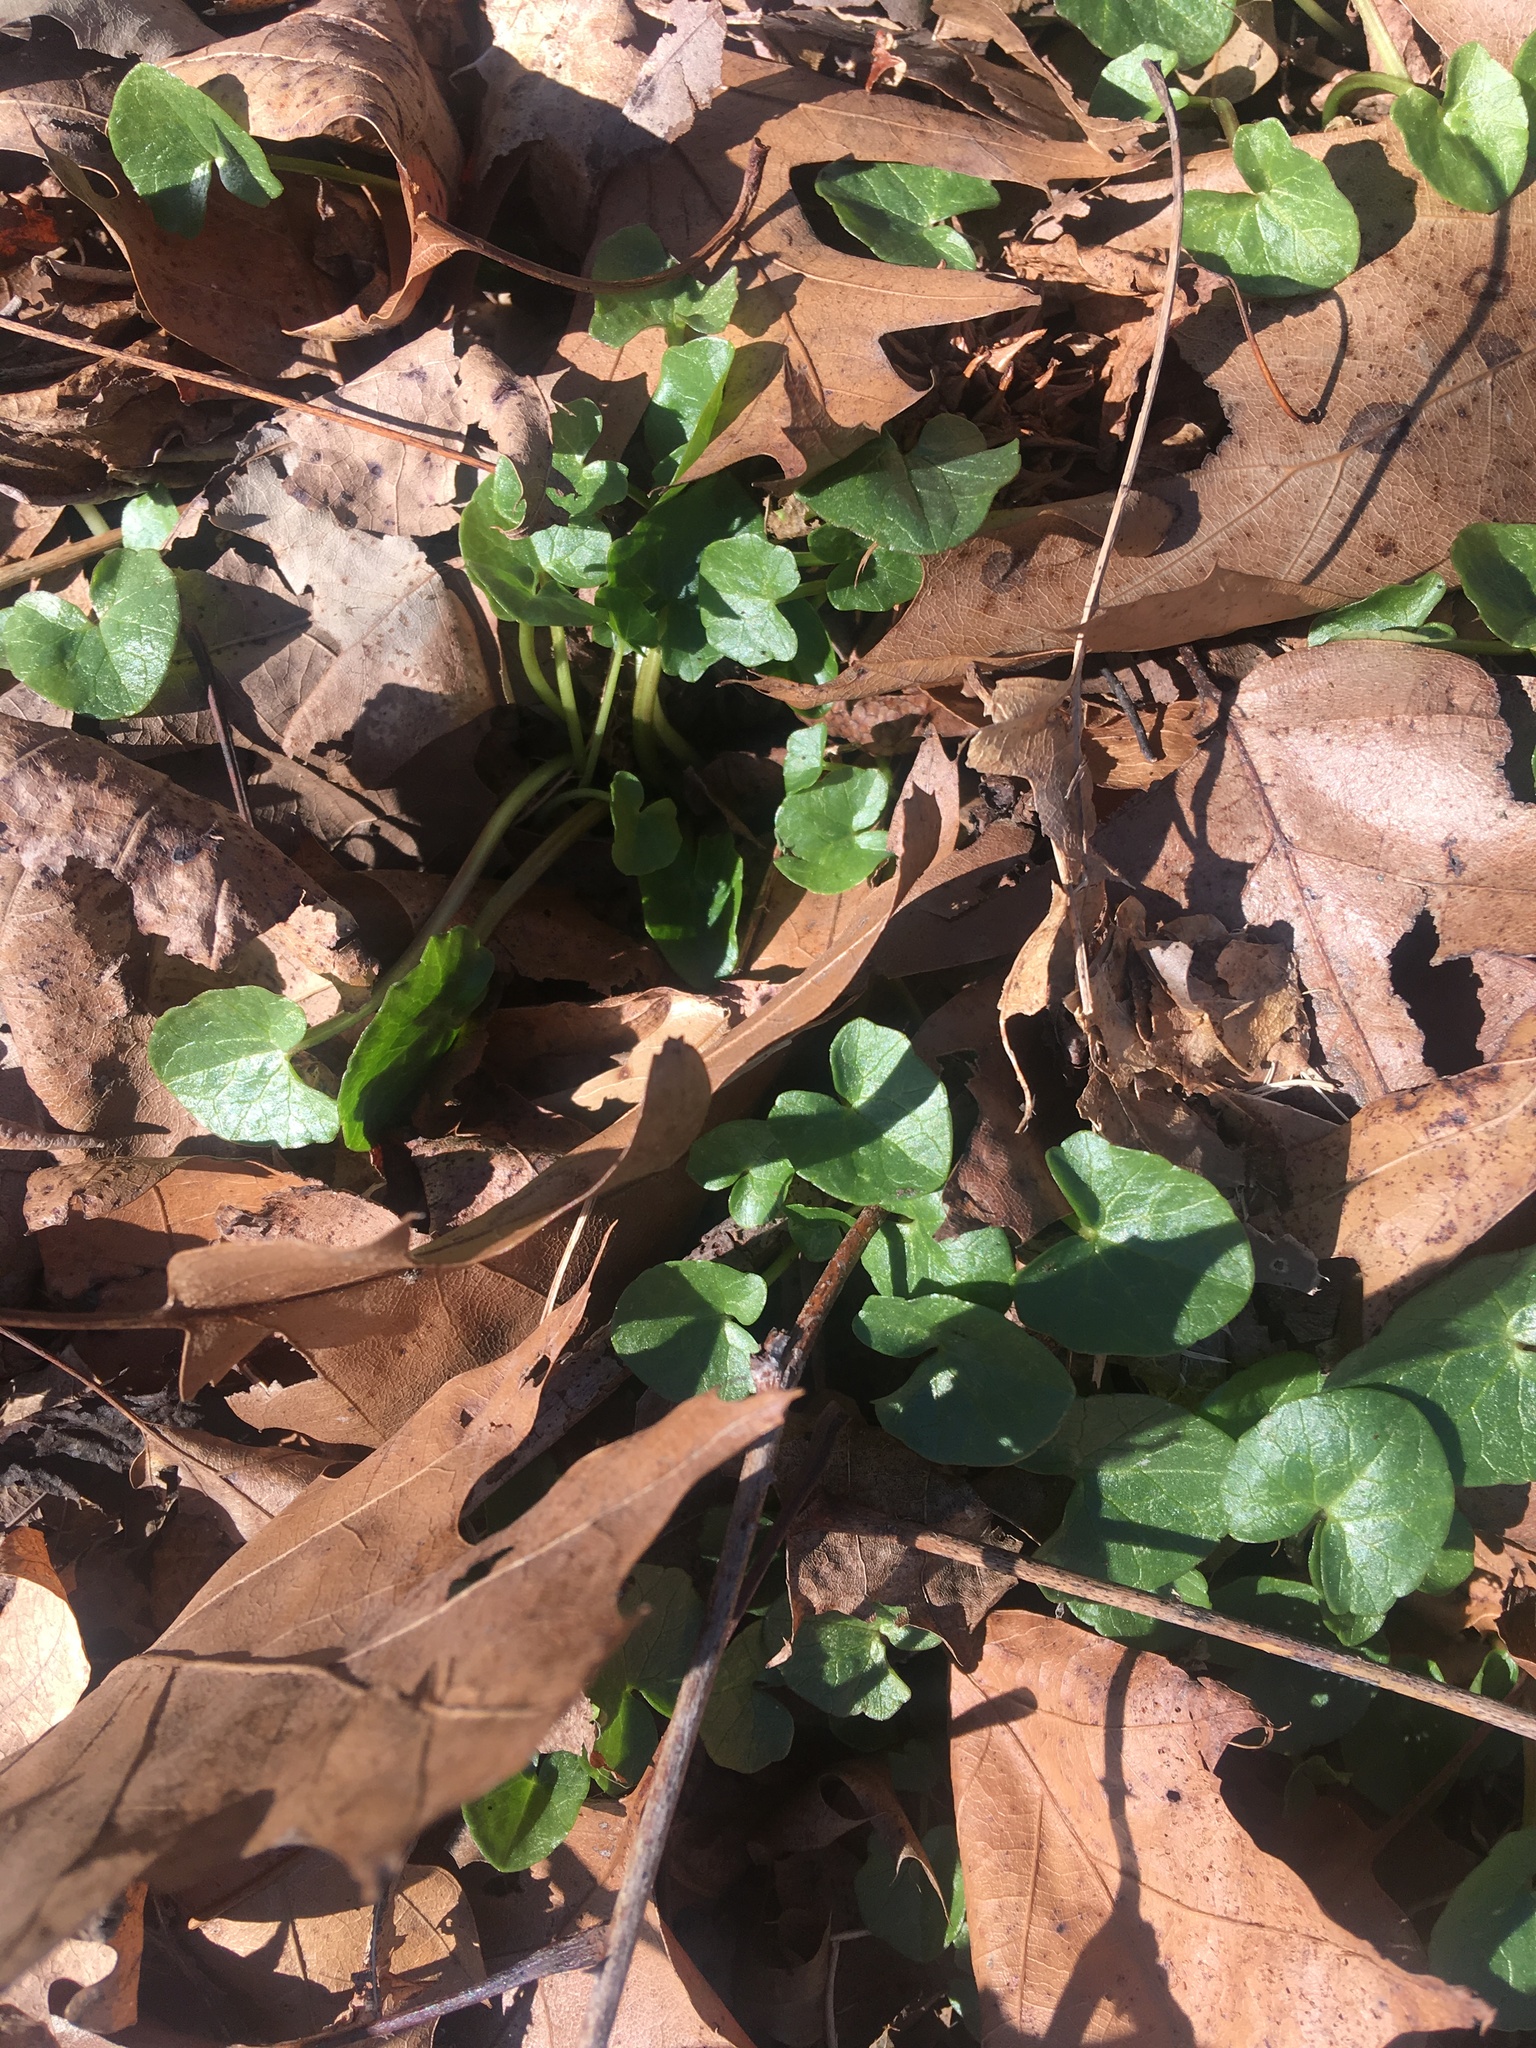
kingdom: Plantae
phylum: Tracheophyta
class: Magnoliopsida
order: Ranunculales
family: Ranunculaceae
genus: Ficaria
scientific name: Ficaria verna
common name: Lesser celandine
